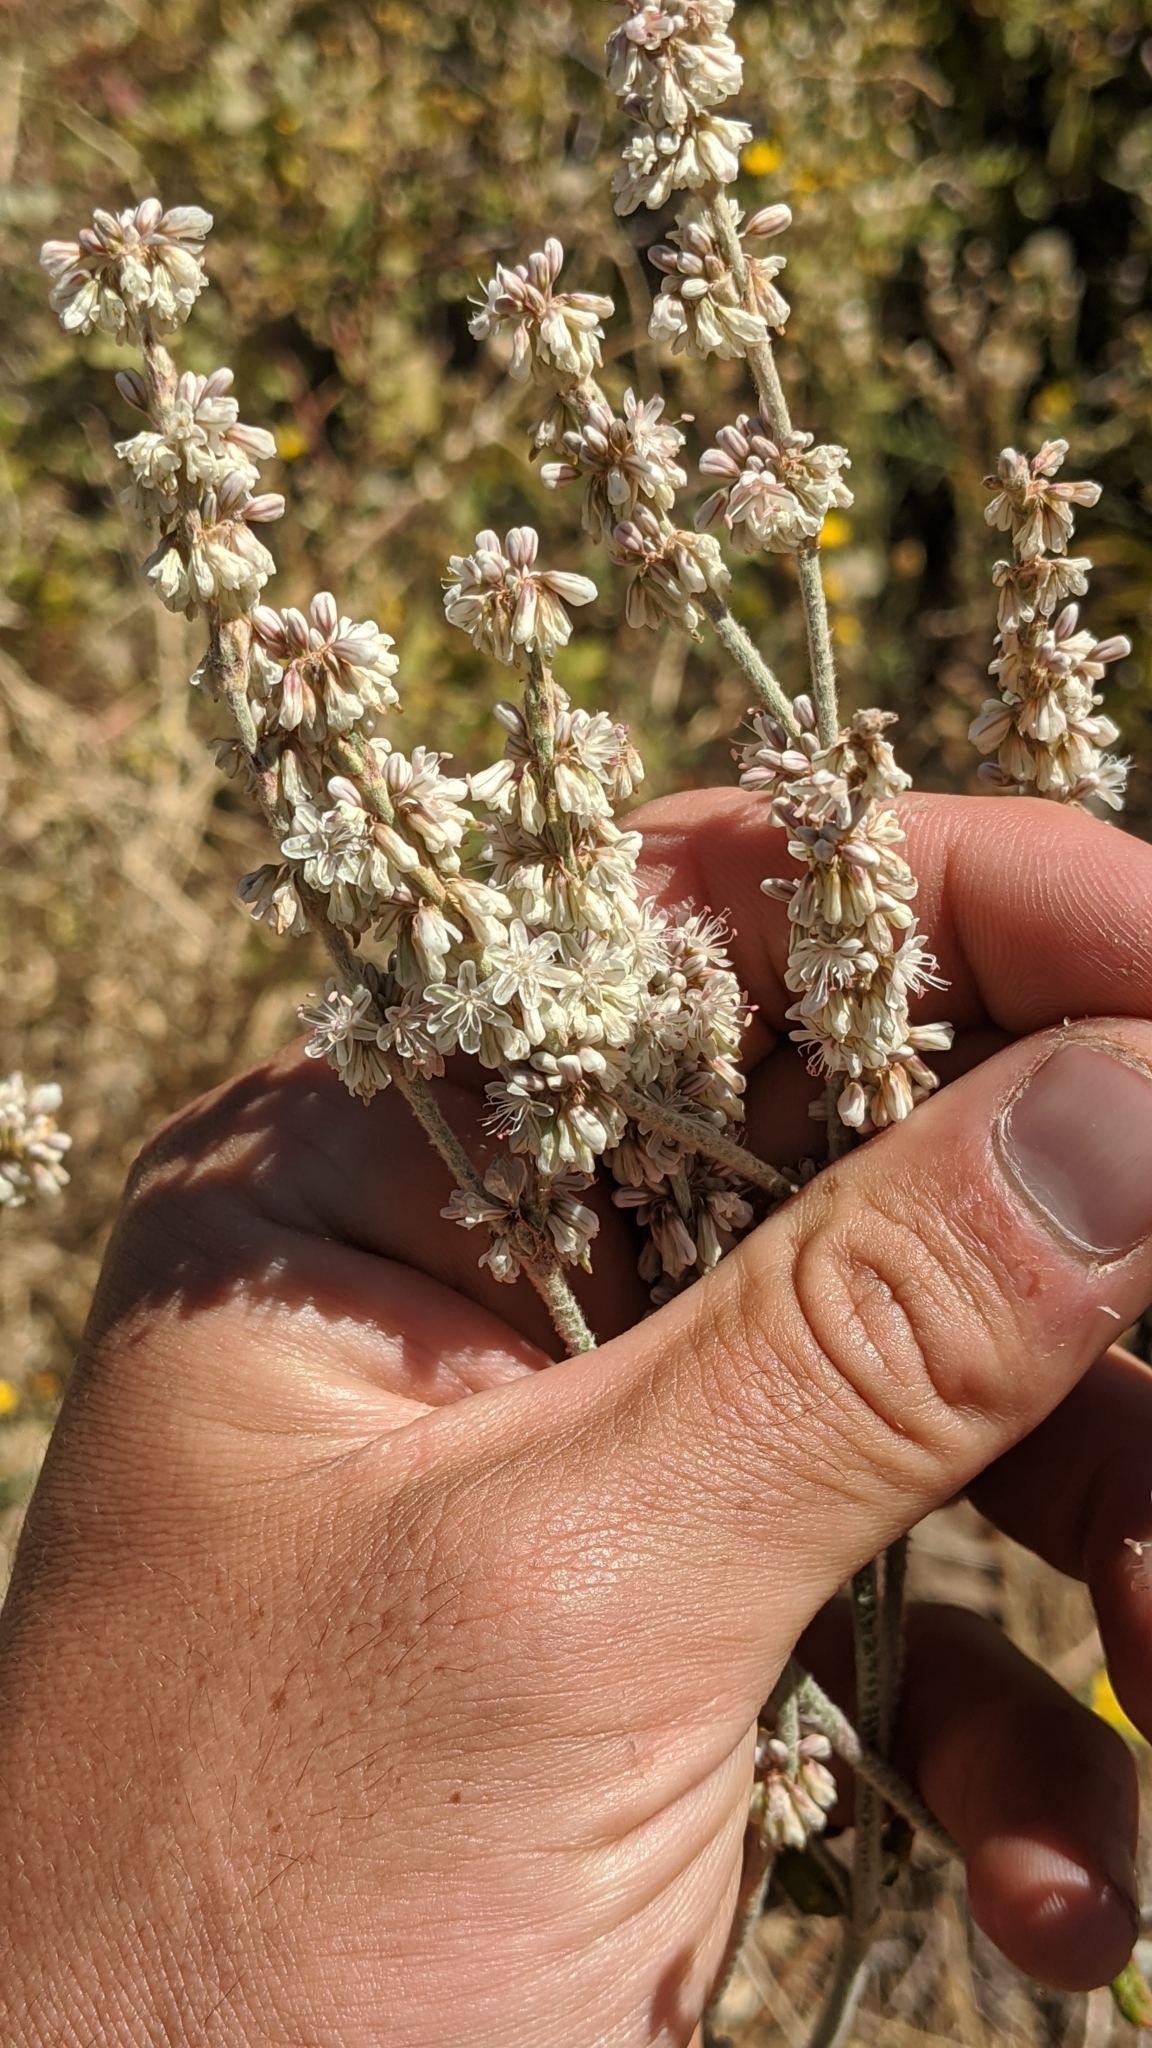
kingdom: Plantae
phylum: Tracheophyta
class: Magnoliopsida
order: Caryophyllales
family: Polygonaceae
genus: Eriogonum
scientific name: Eriogonum racemosum
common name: Redroot wild buckwheat
